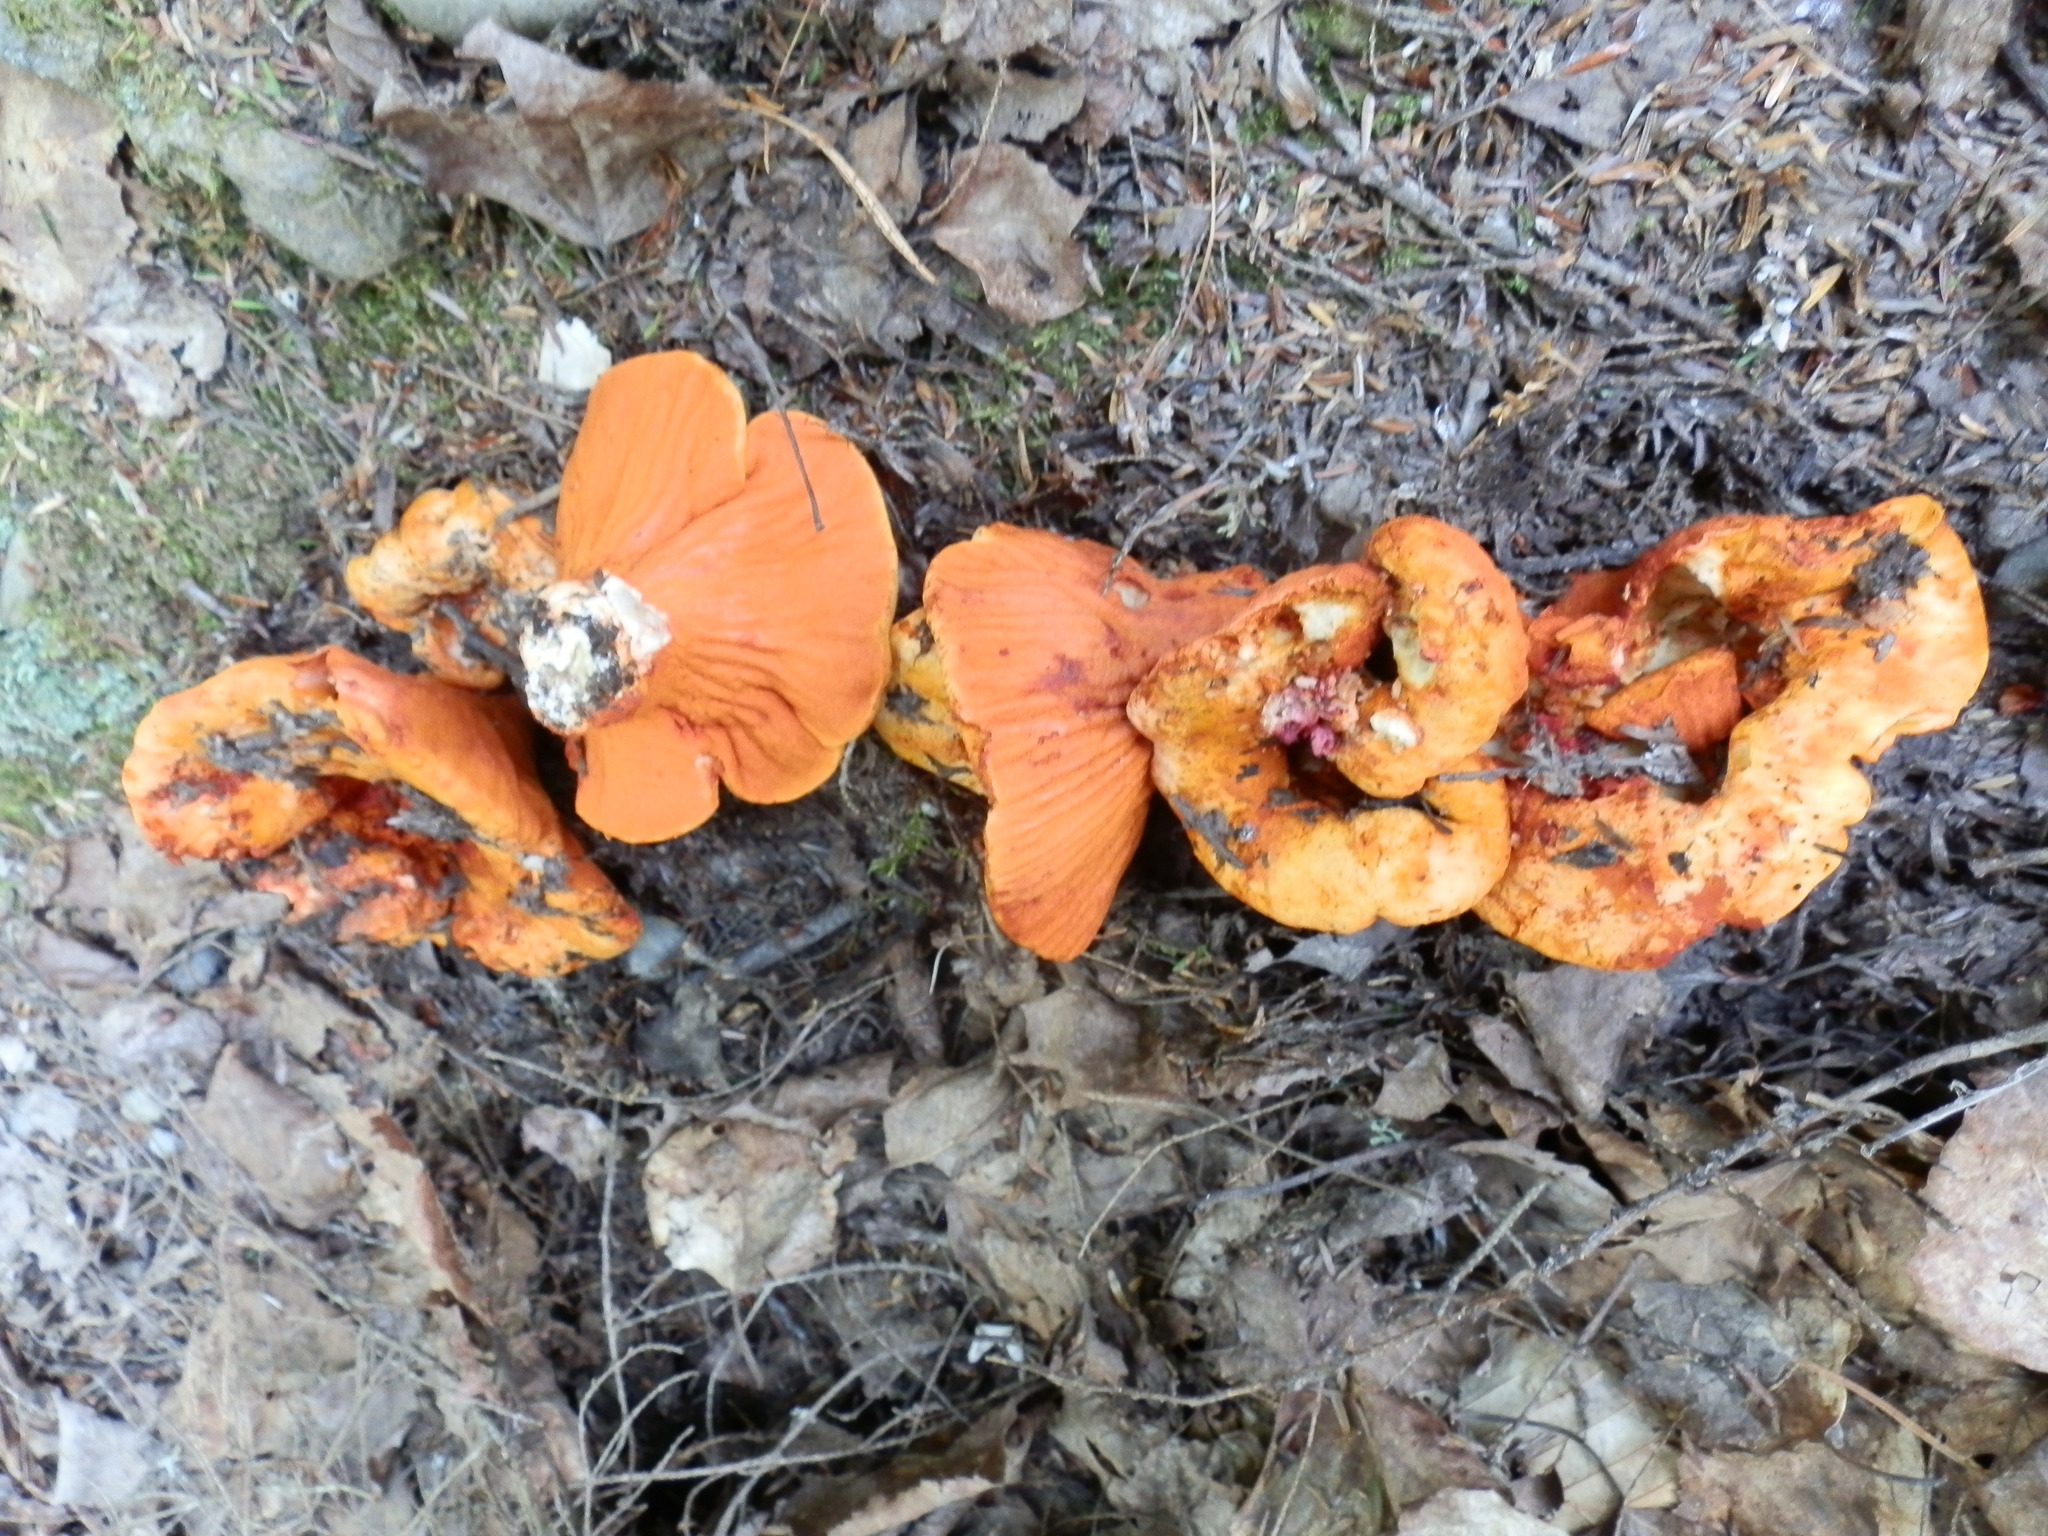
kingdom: Fungi
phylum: Ascomycota
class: Sordariomycetes
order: Hypocreales
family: Hypocreaceae
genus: Hypomyces
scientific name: Hypomyces lactifluorum
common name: Lobster mushroom
